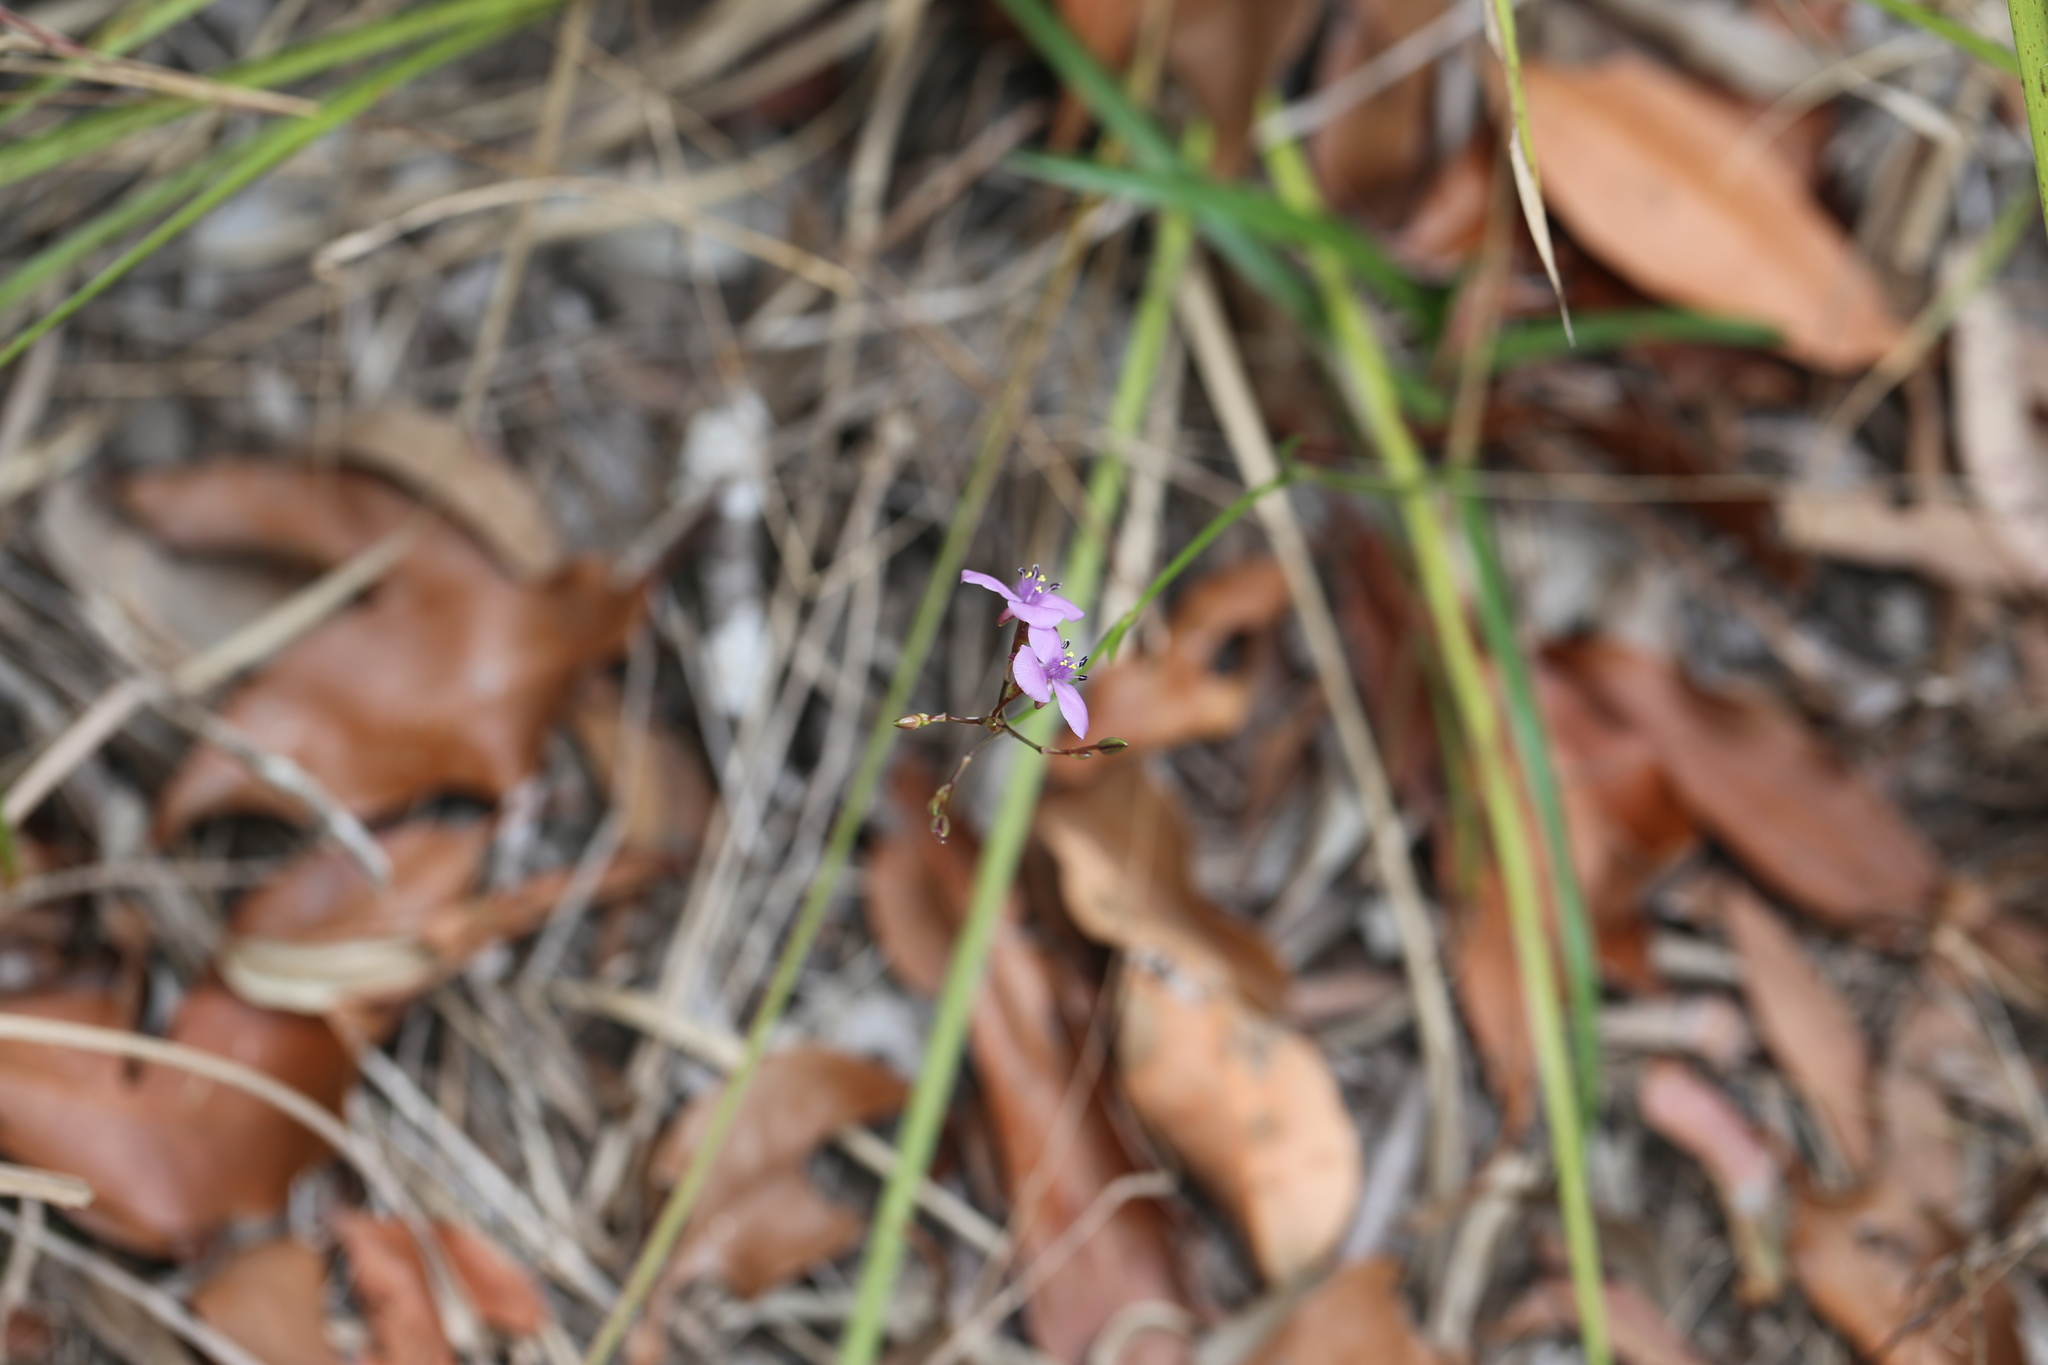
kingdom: Plantae
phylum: Tracheophyta
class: Liliopsida
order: Commelinales
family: Commelinaceae
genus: Murdannia
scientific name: Murdannia graminea
